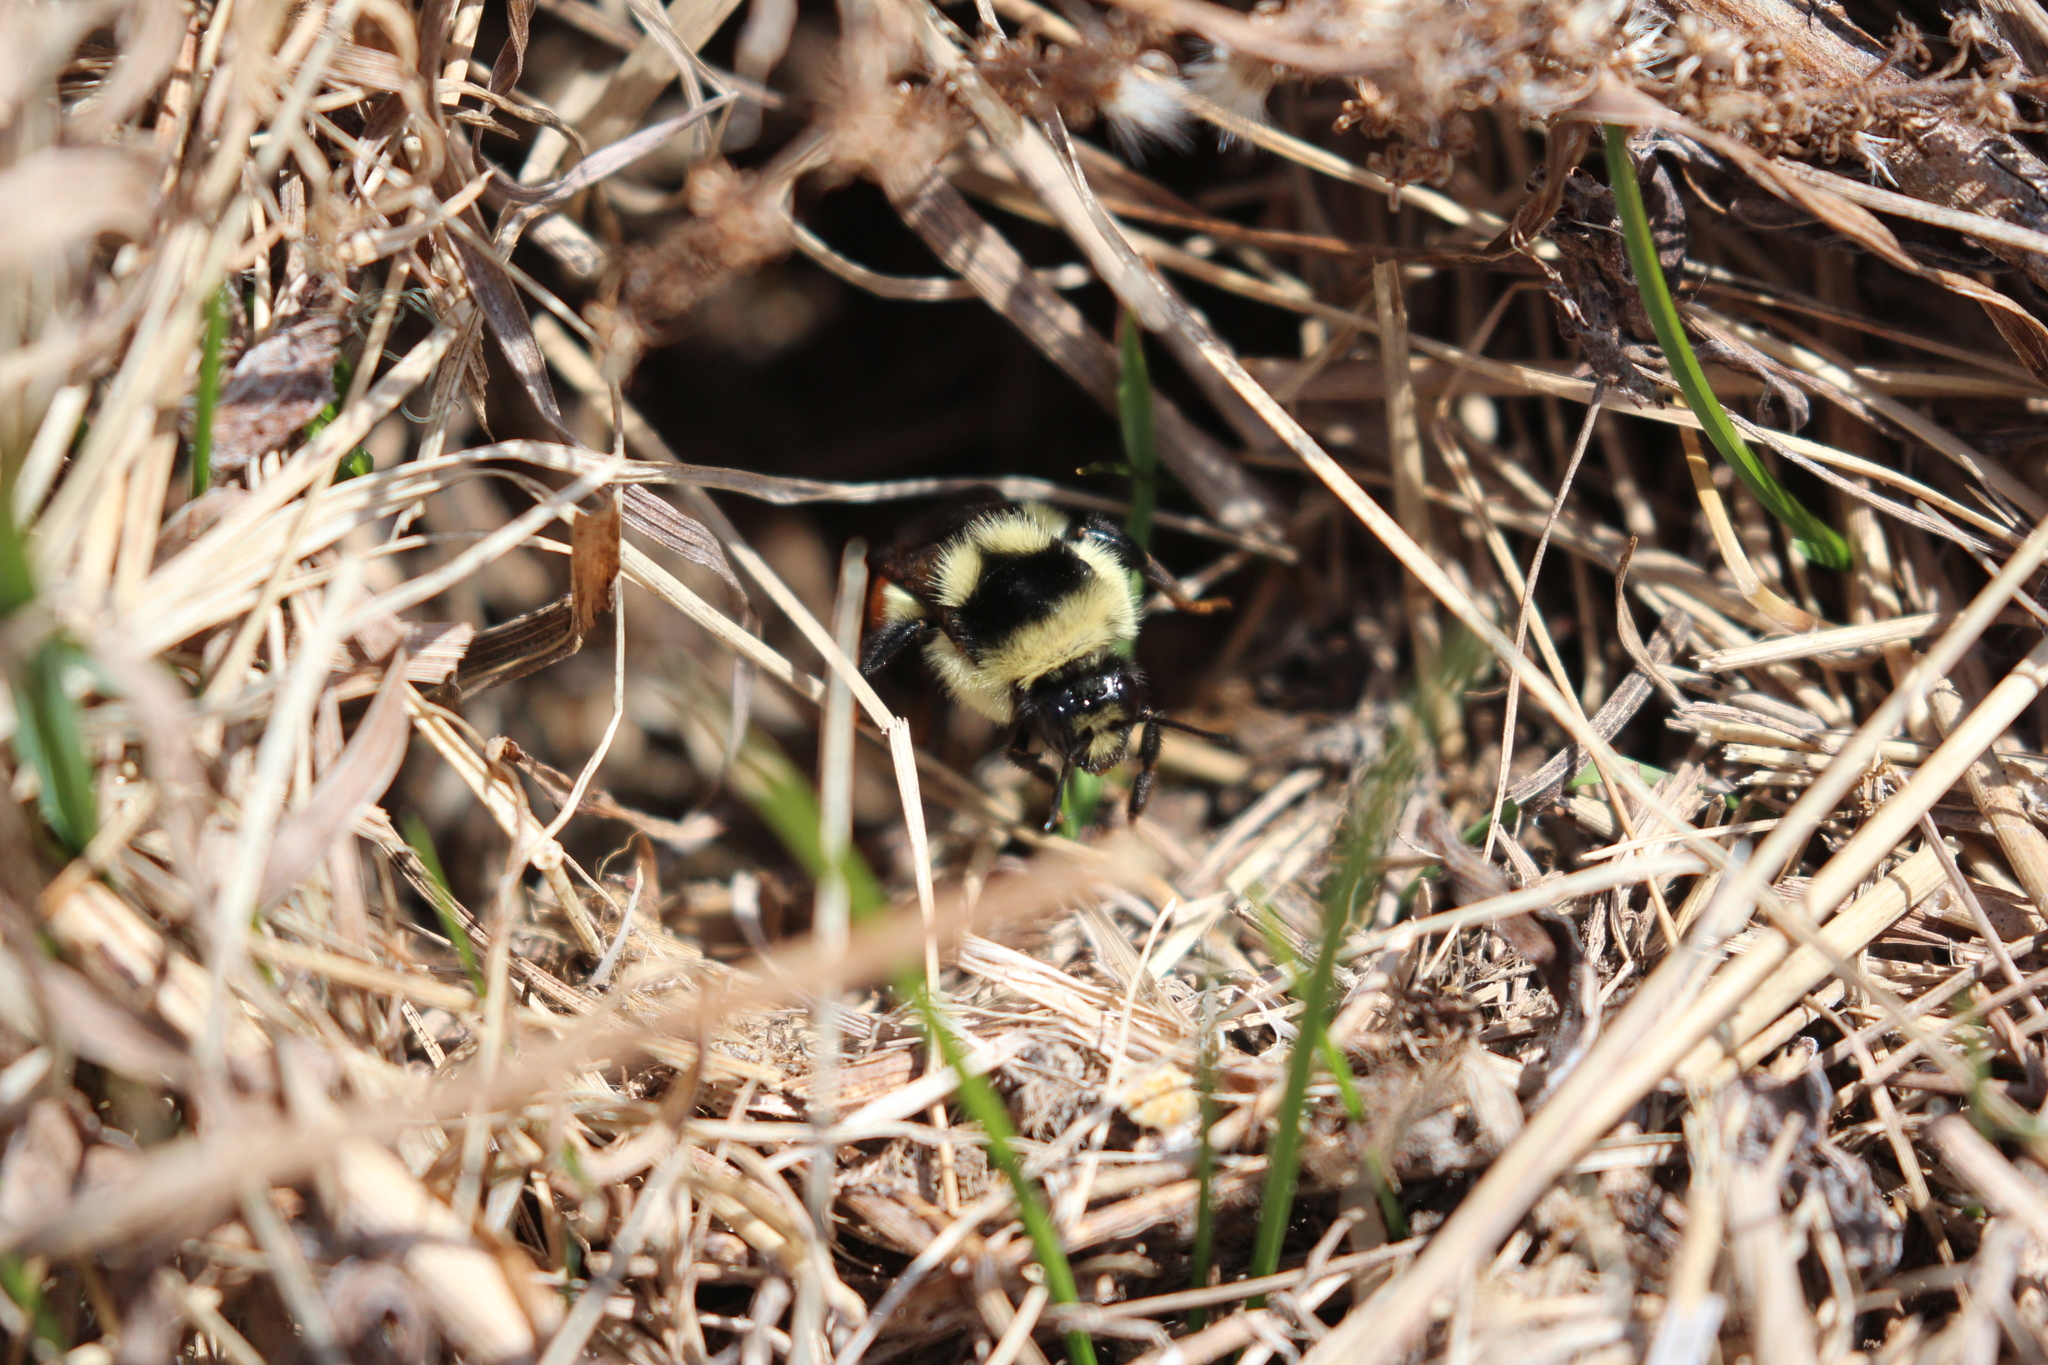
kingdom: Animalia
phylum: Arthropoda
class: Insecta
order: Hymenoptera
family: Apidae
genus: Bombus
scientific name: Bombus ternarius
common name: Tri-colored bumble bee
